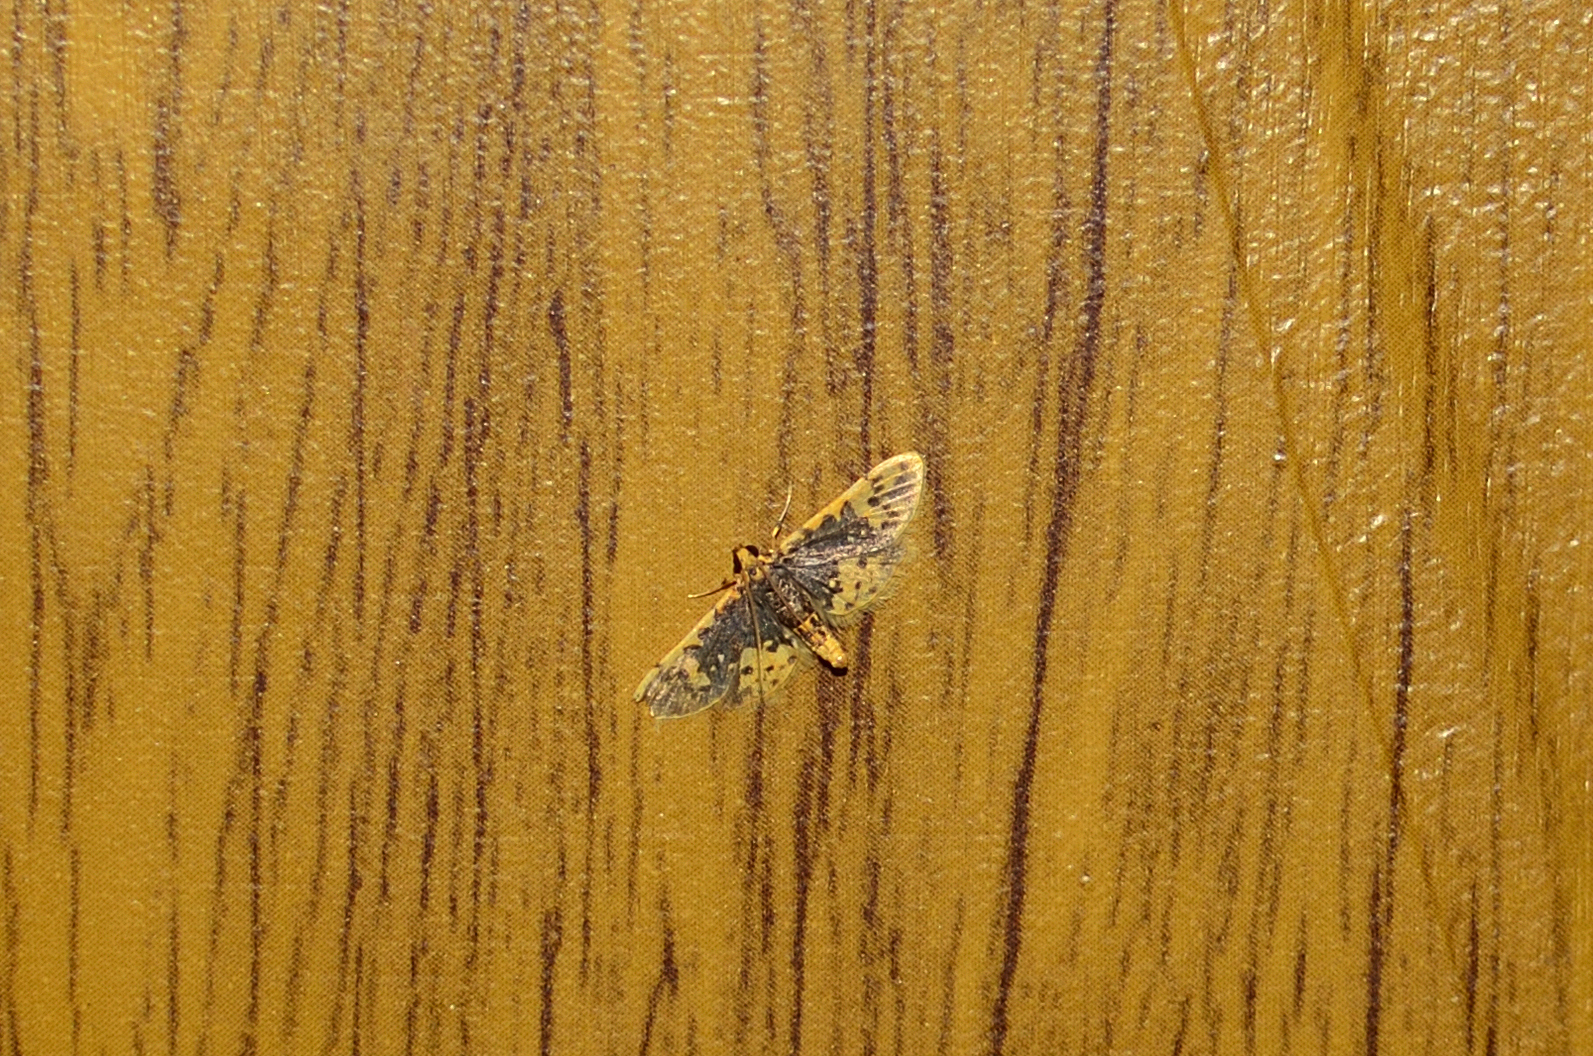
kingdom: Animalia
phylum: Arthropoda
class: Insecta
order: Lepidoptera
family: Crambidae
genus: Cynaeda
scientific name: Cynaeda
